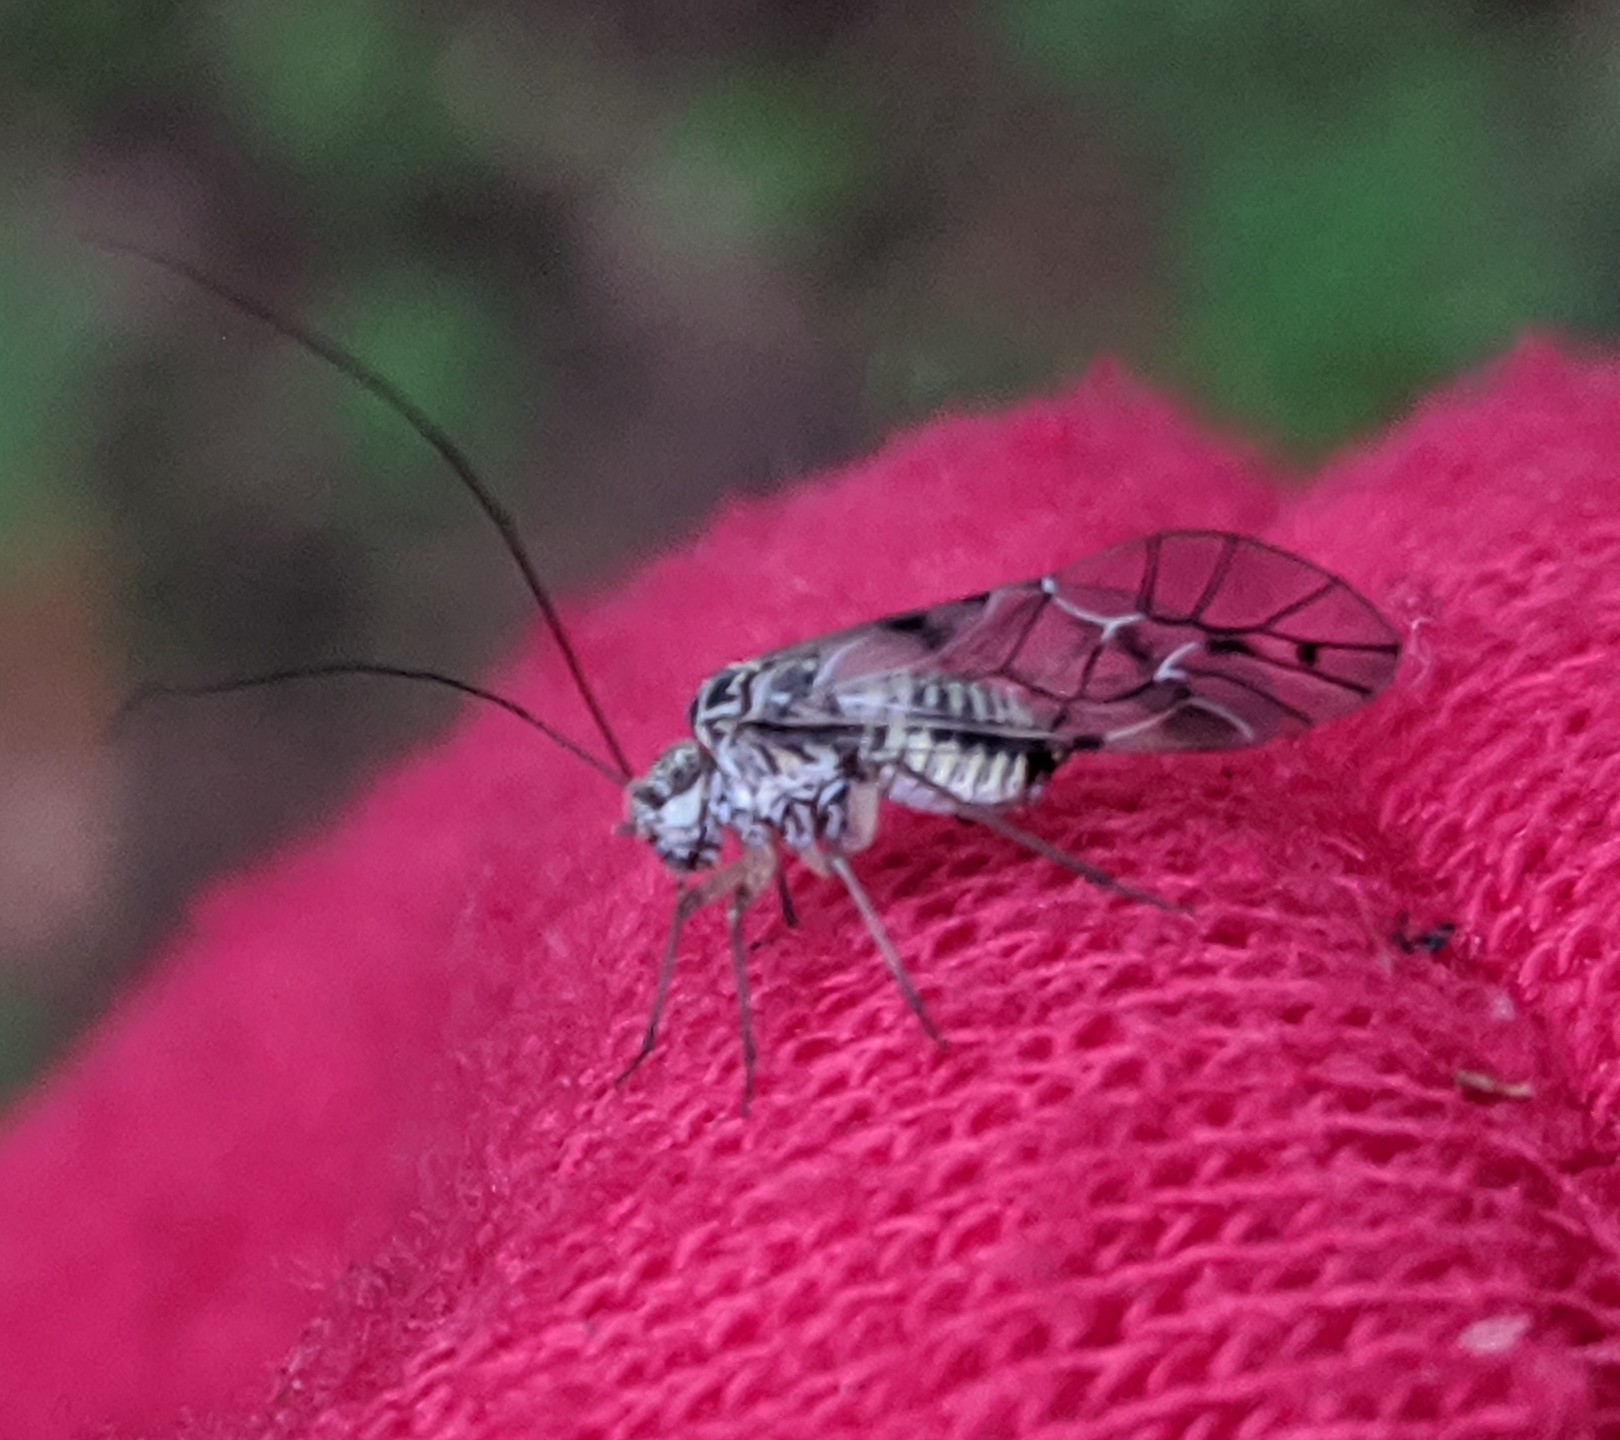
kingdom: Animalia
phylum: Arthropoda
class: Insecta
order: Psocodea
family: Psocidae
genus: Psococerastis
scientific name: Psococerastis gibbosa
